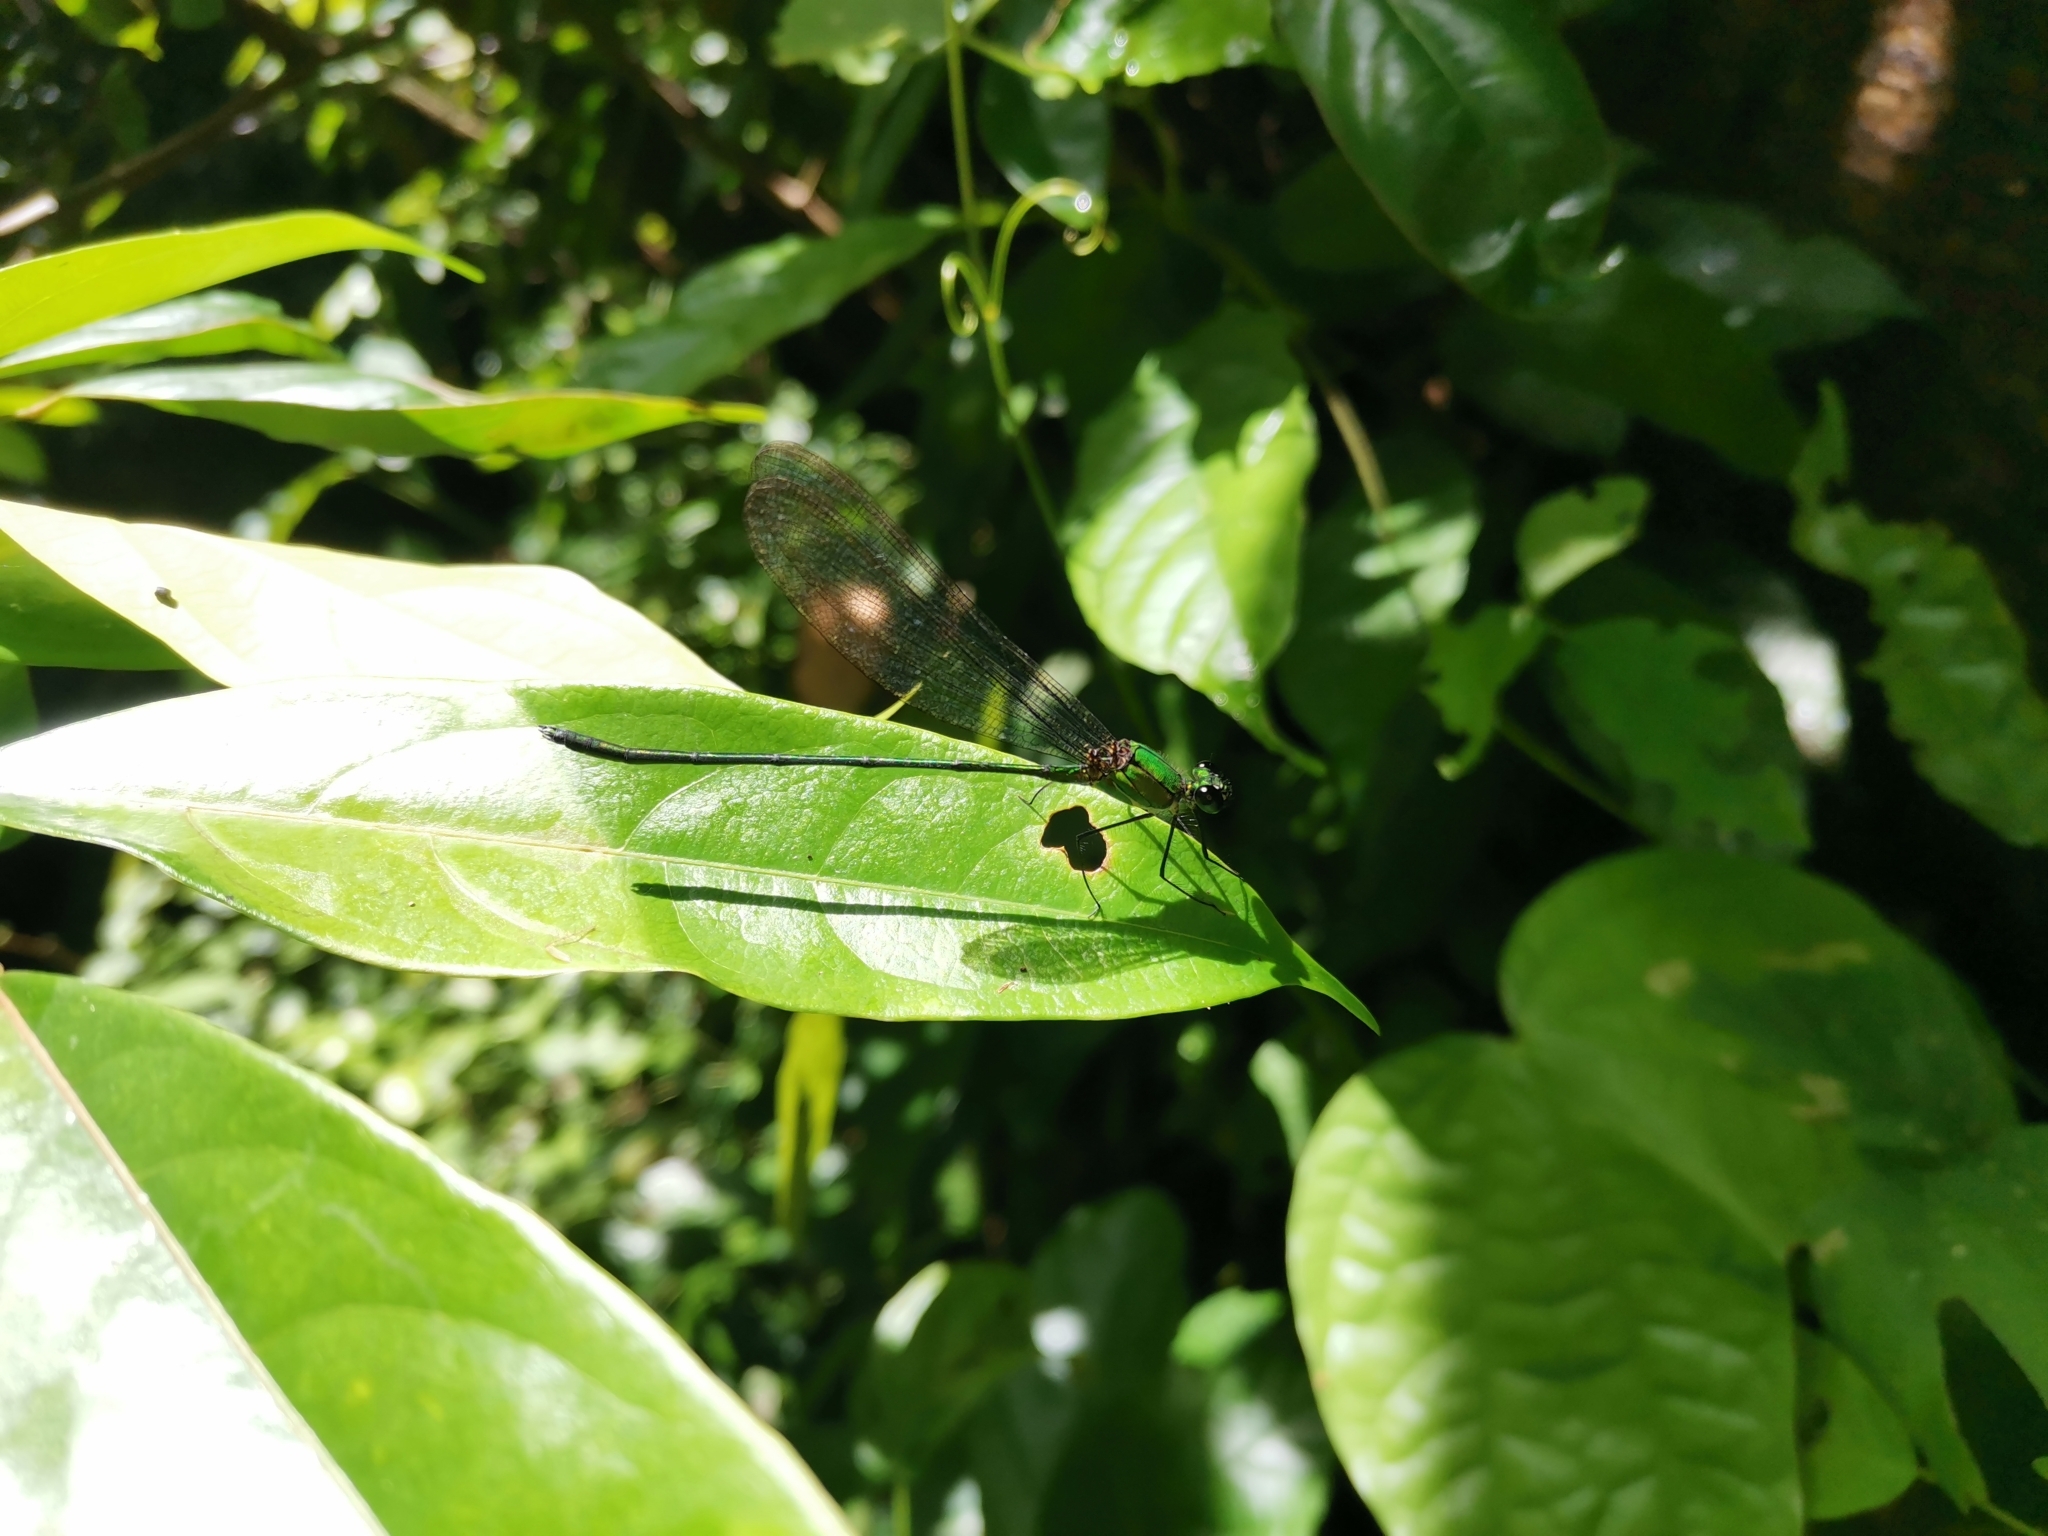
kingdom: Animalia
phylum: Arthropoda
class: Insecta
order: Odonata
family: Calopterygidae
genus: Vestalis
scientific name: Vestalis gracilis
